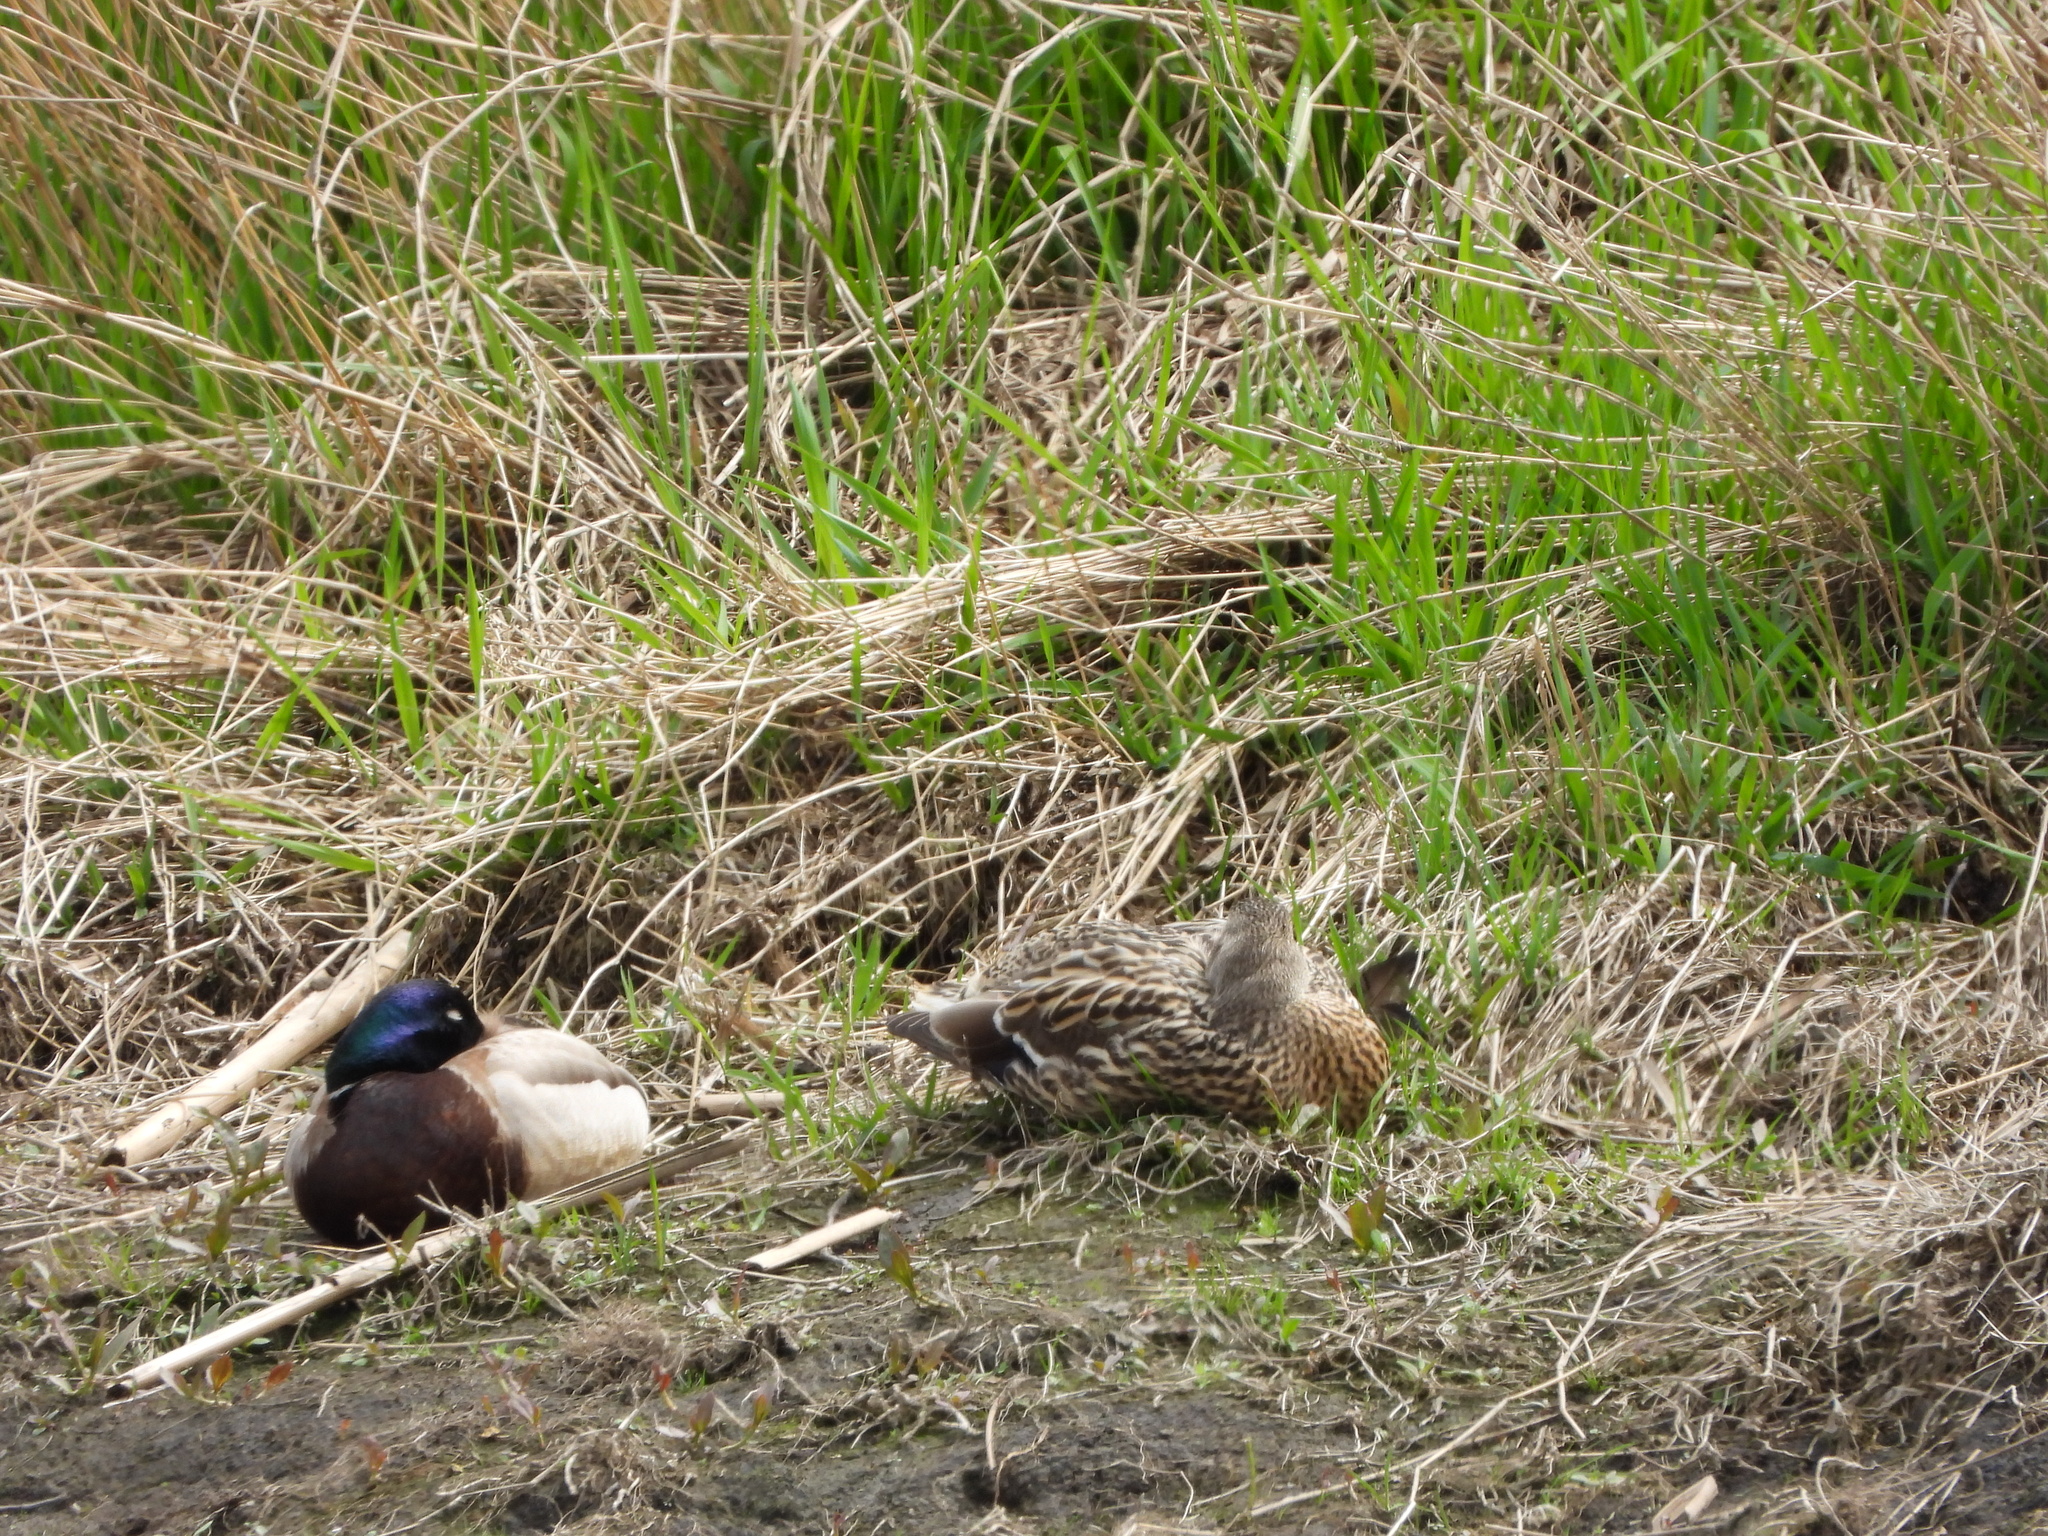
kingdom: Animalia
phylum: Chordata
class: Aves
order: Anseriformes
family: Anatidae
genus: Anas
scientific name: Anas platyrhynchos
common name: Mallard
